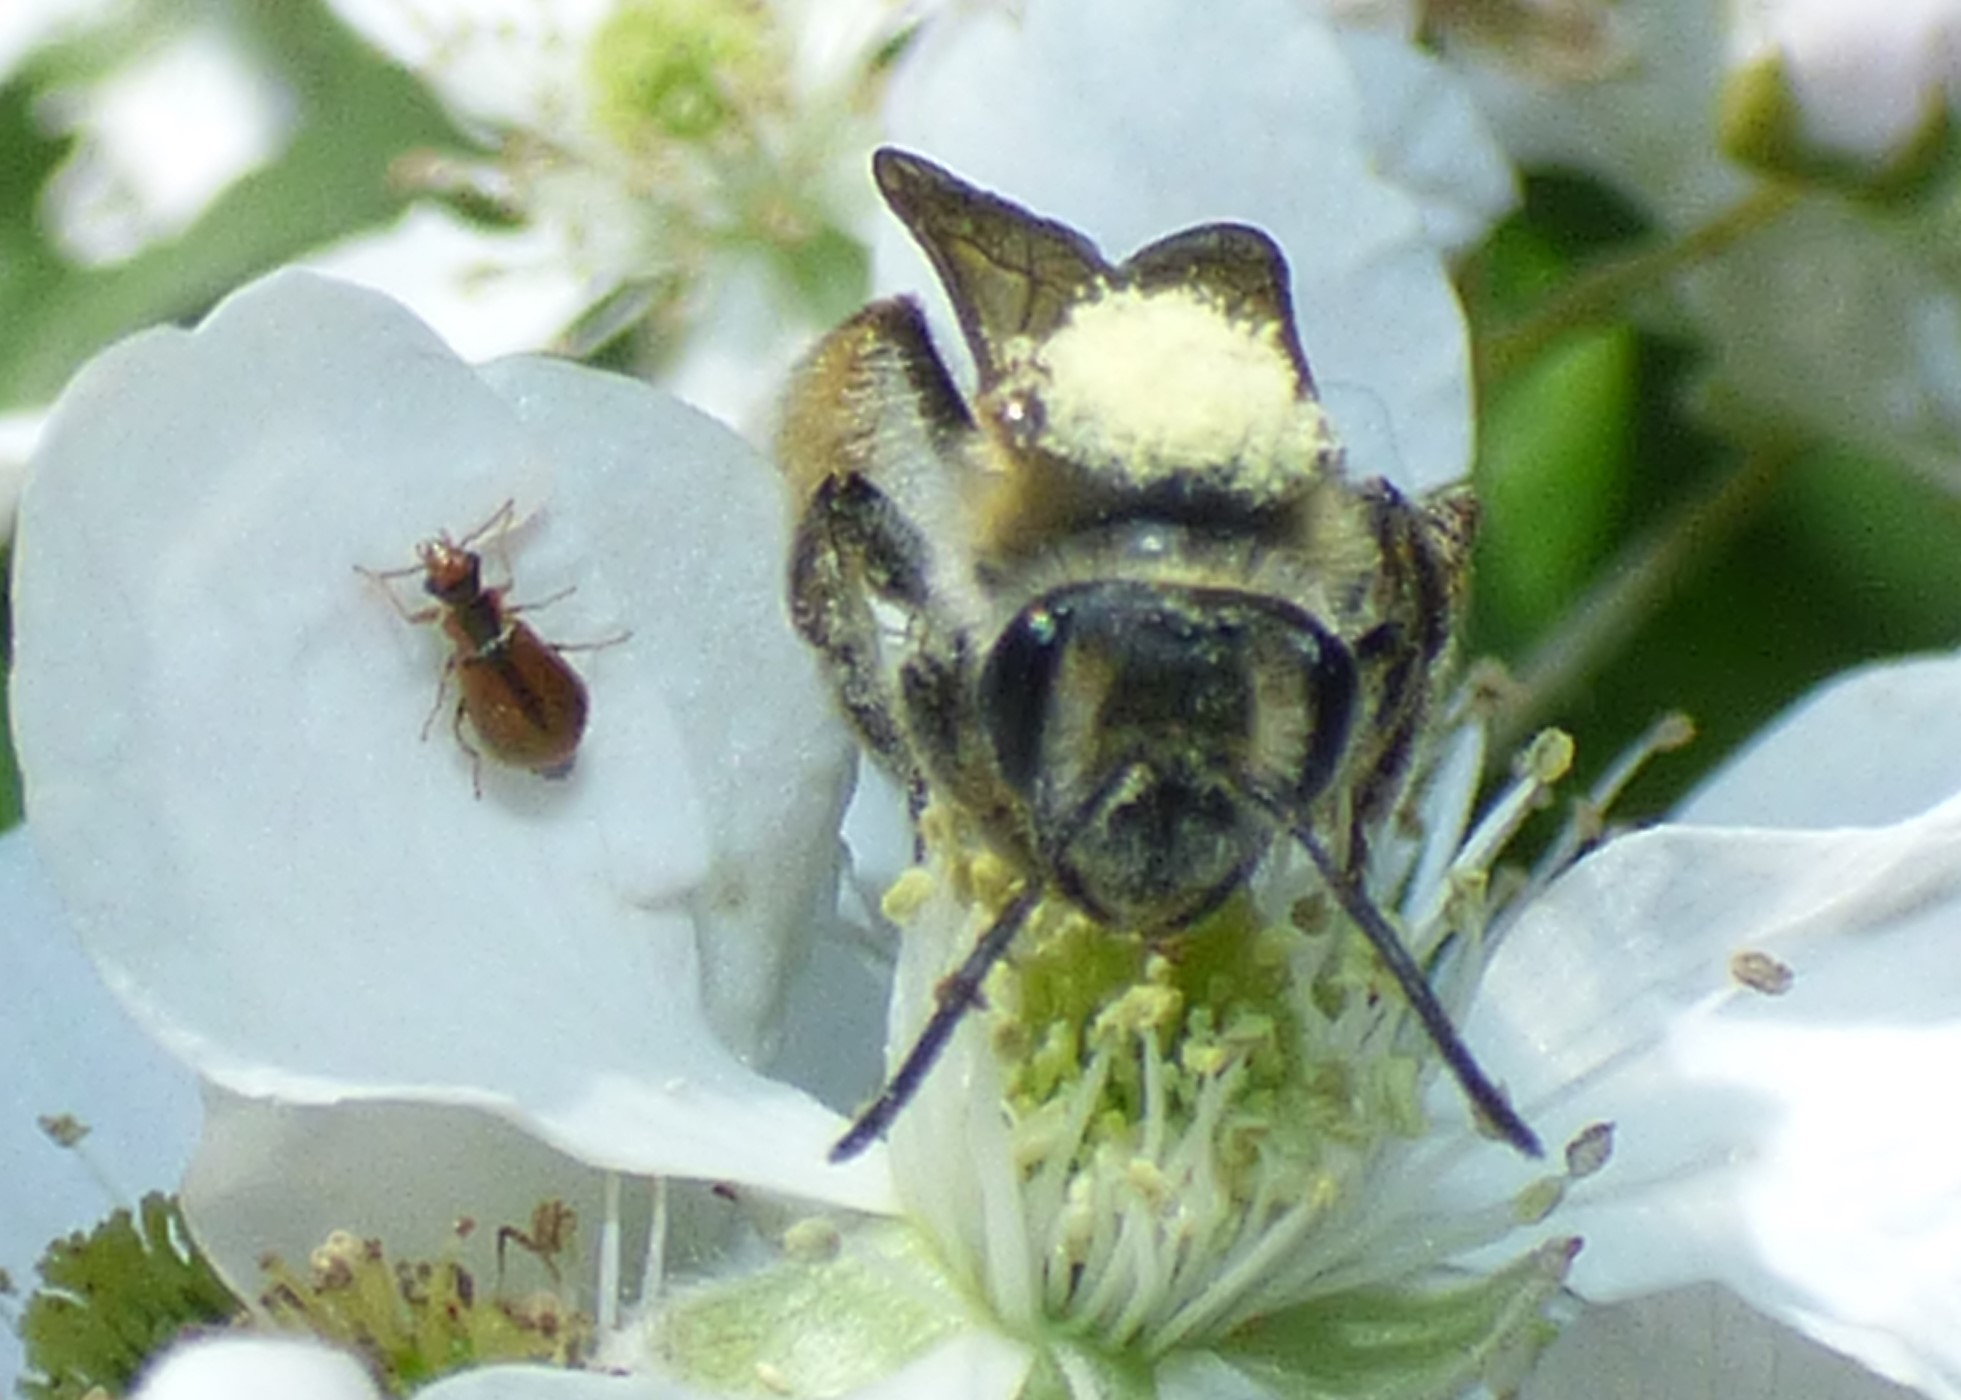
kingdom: Animalia
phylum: Arthropoda
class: Insecta
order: Coleoptera
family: Malachiidae
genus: Attalus
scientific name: Attalus
